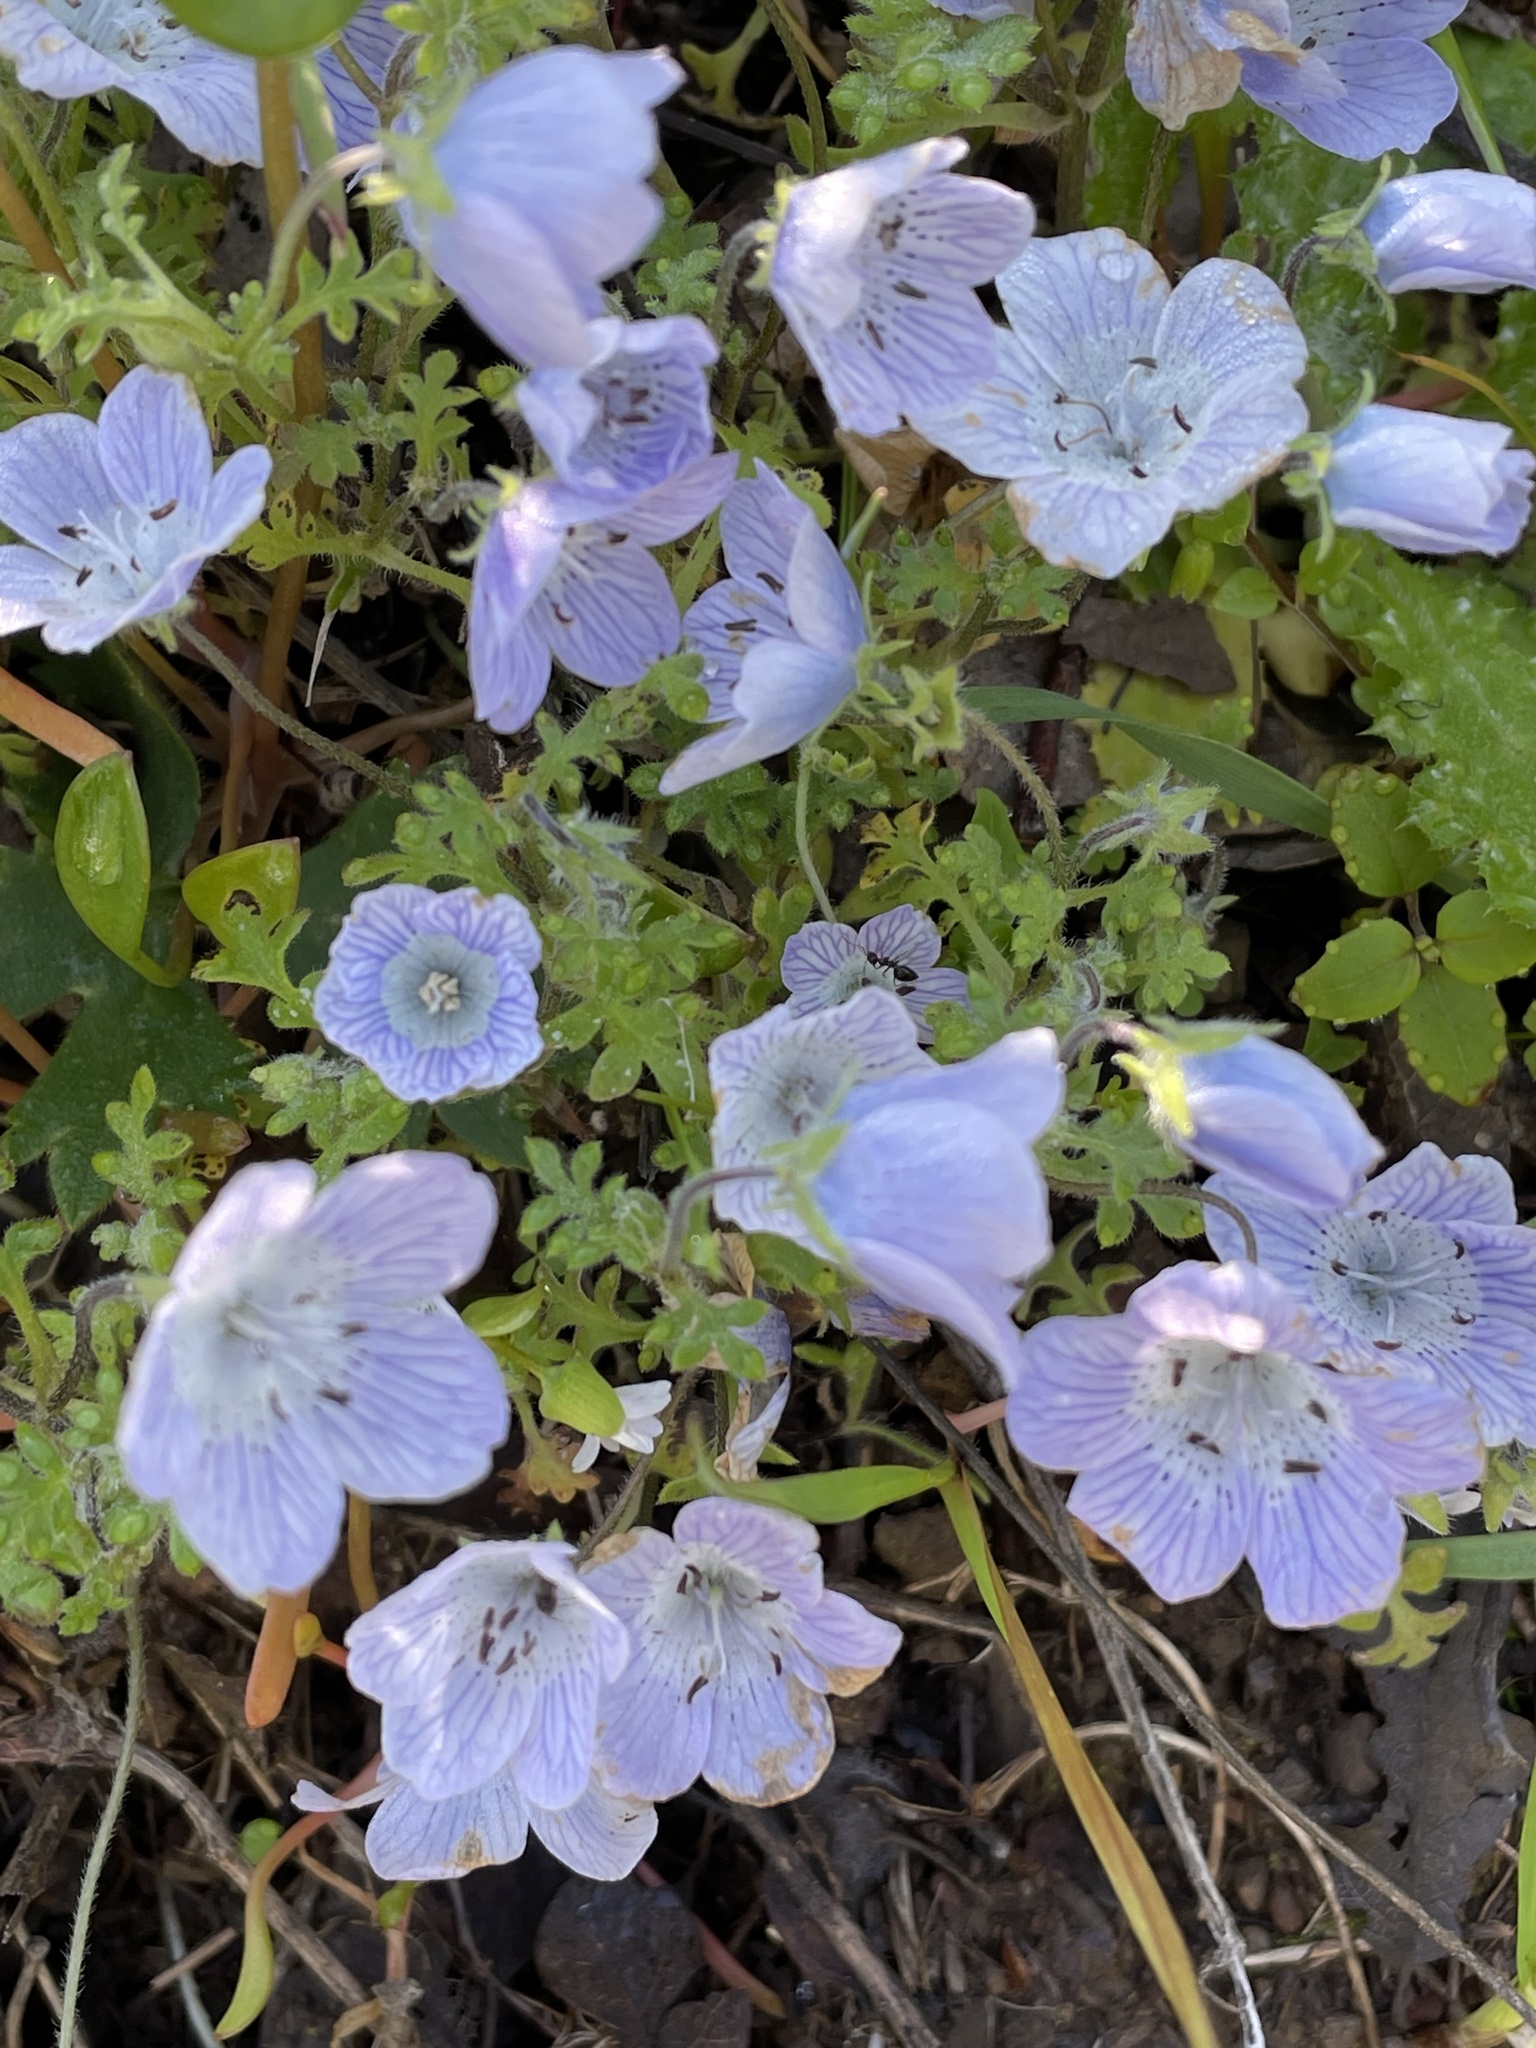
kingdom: Plantae
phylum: Tracheophyta
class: Magnoliopsida
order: Boraginales
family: Hydrophyllaceae
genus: Nemophila
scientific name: Nemophila menziesii
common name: Baby's-blue-eyes
